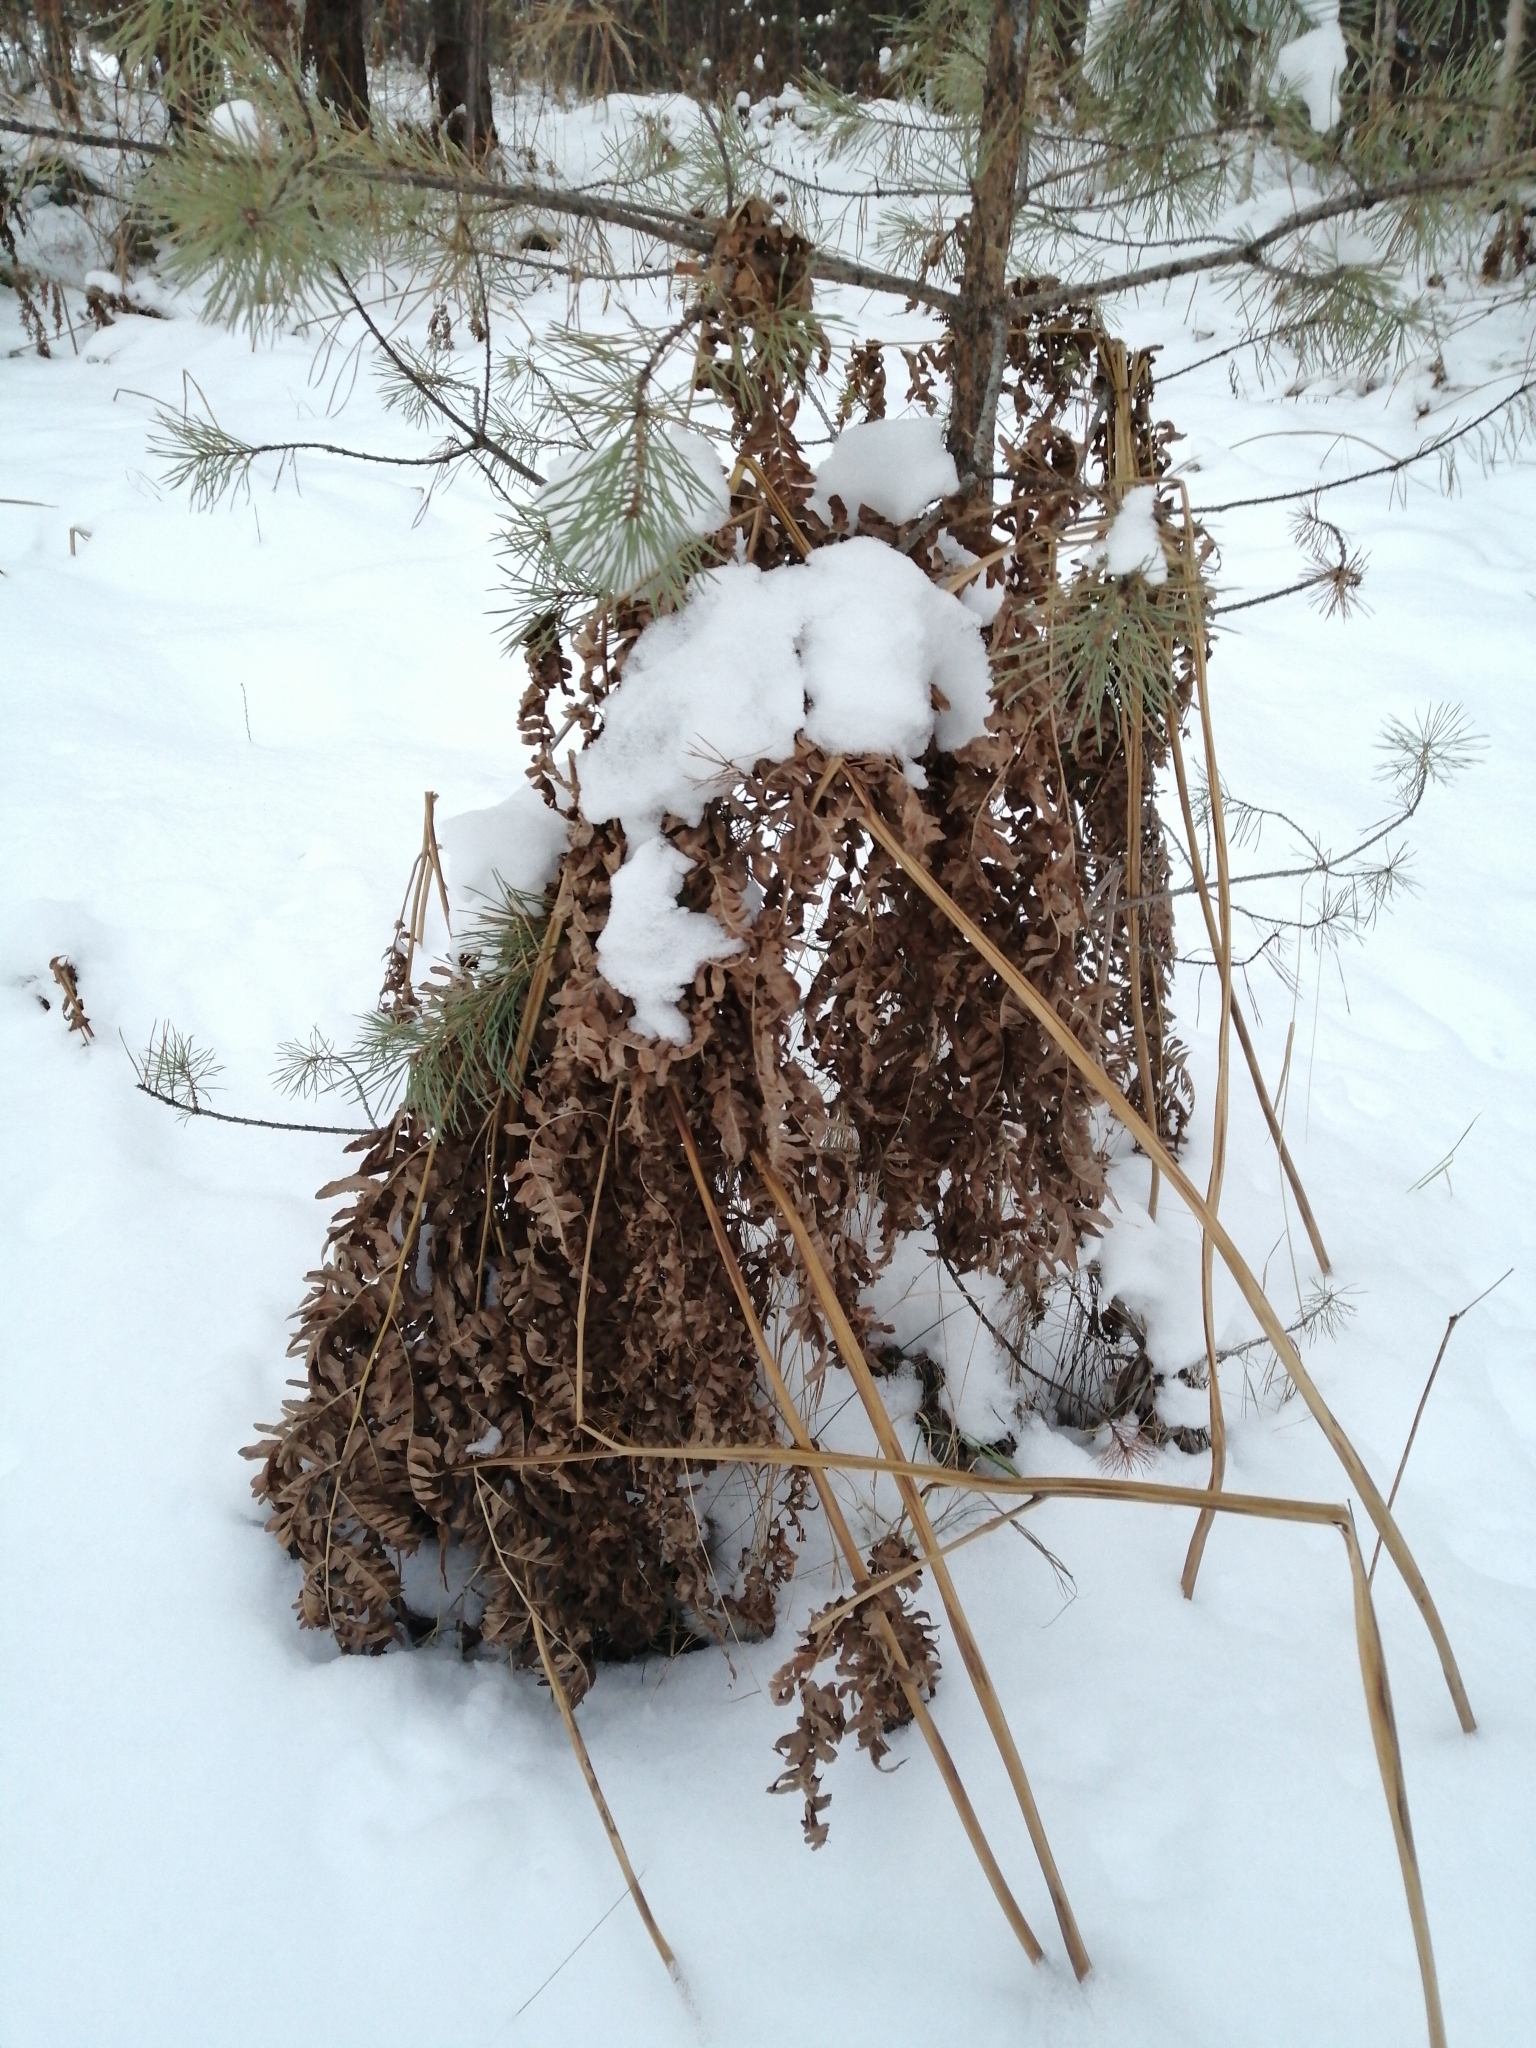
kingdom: Plantae
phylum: Tracheophyta
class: Polypodiopsida
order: Polypodiales
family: Dennstaedtiaceae
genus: Pteridium
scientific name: Pteridium aquilinum
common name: Bracken
